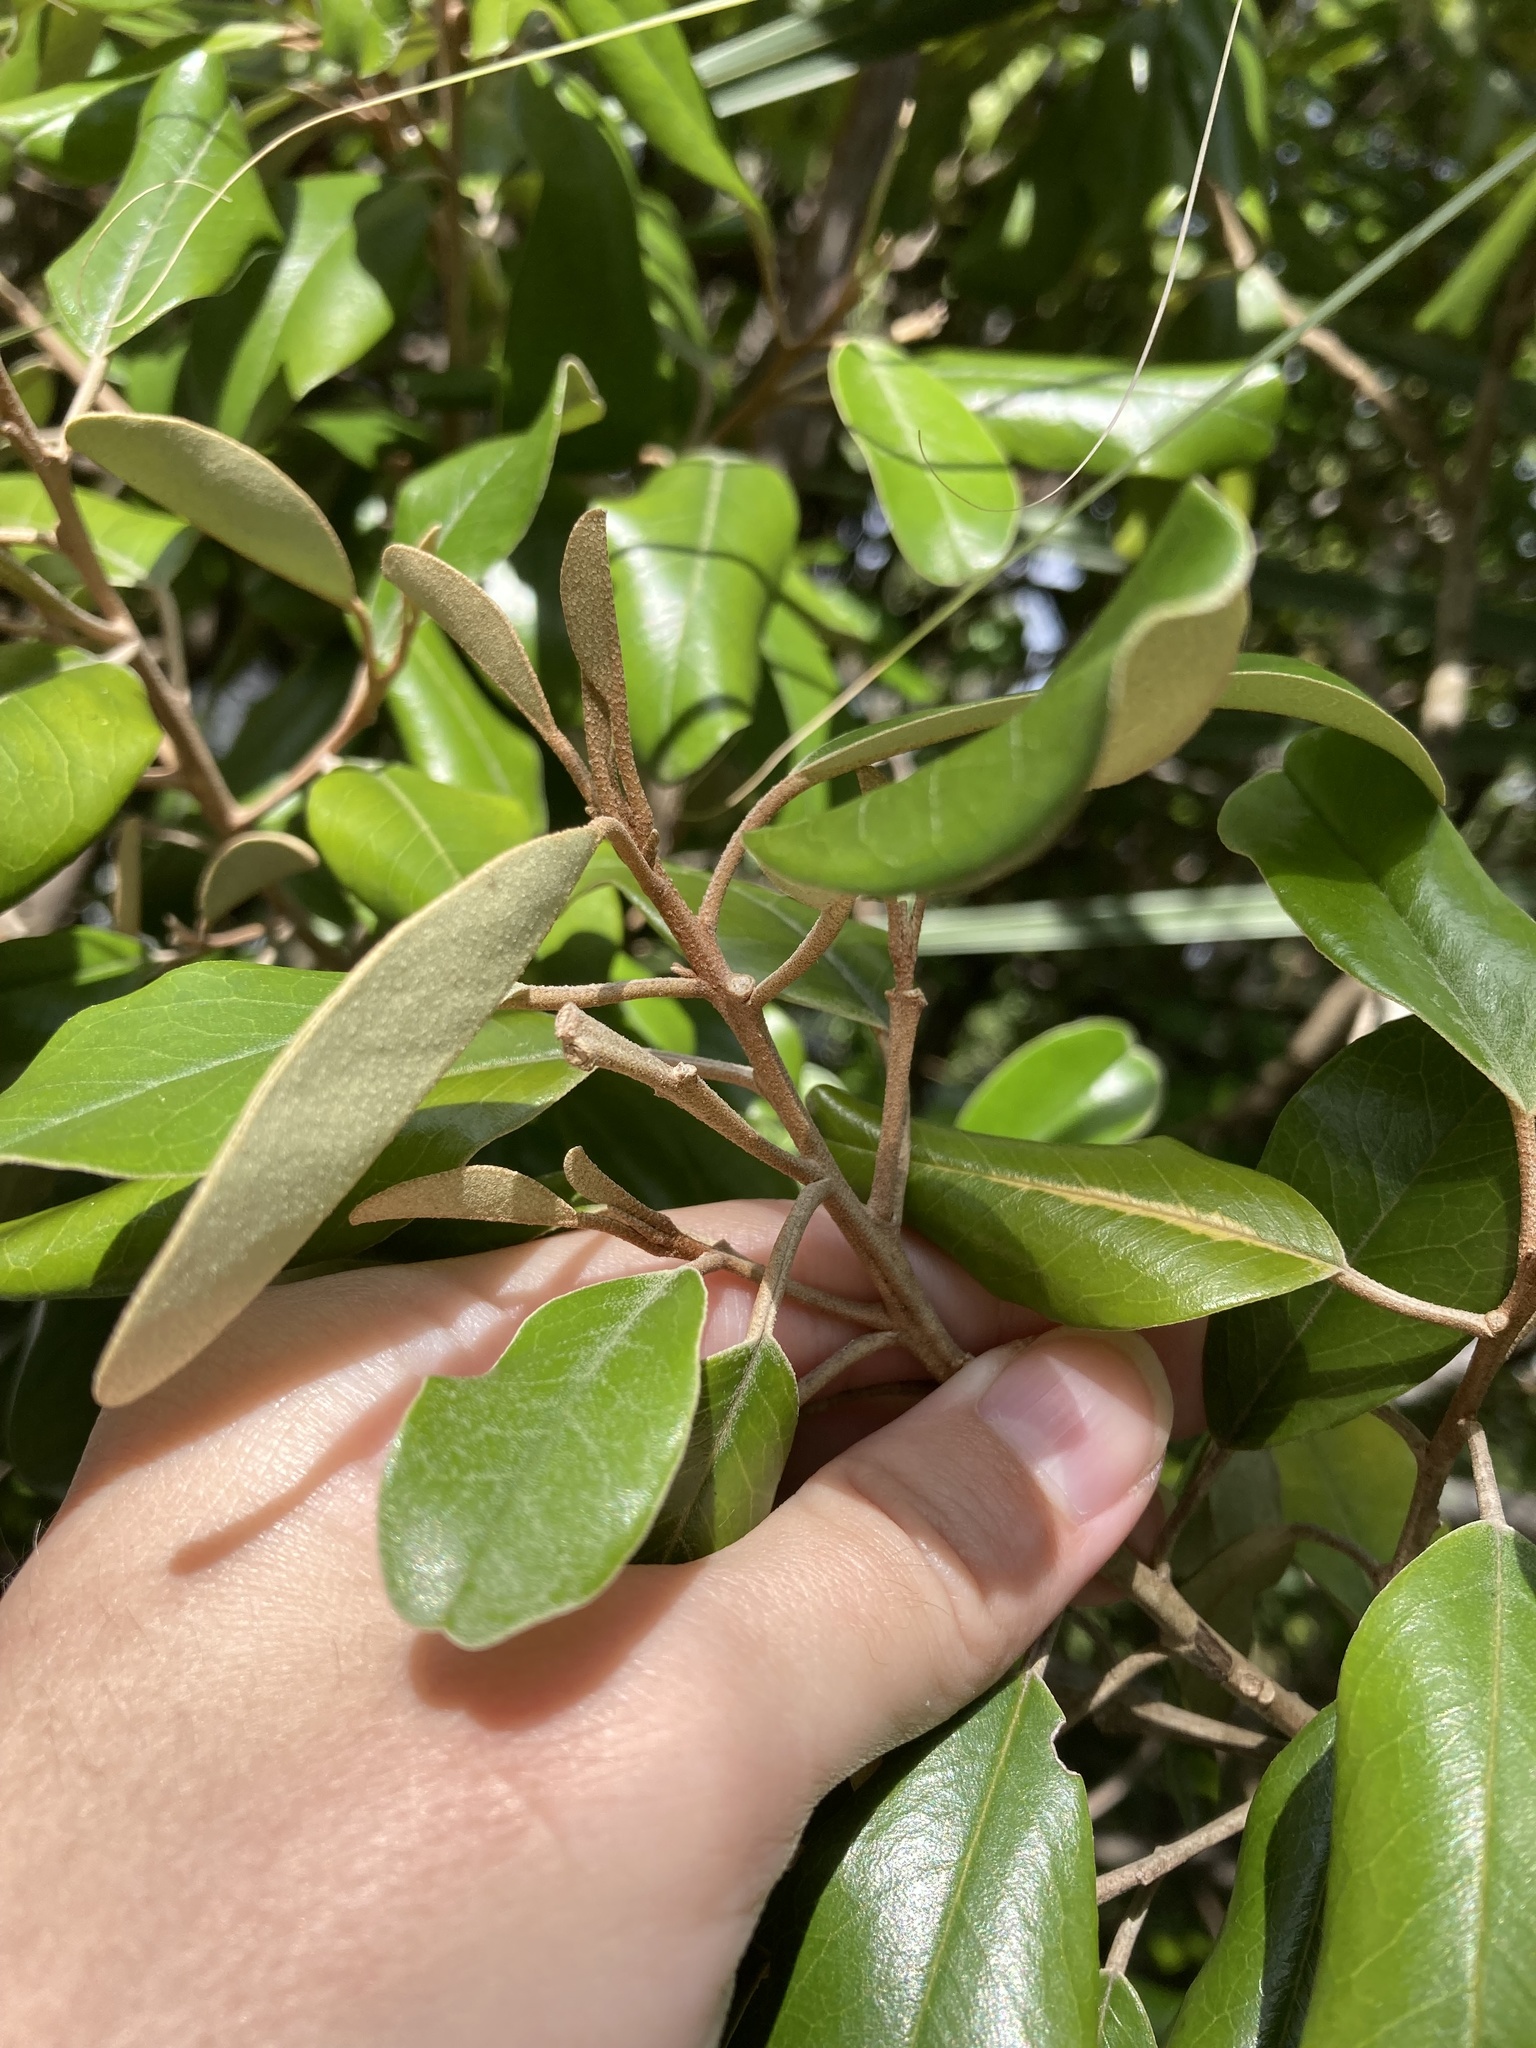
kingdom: Plantae
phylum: Tracheophyta
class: Magnoliopsida
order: Brassicales
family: Capparaceae
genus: Quadrella
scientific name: Quadrella cynophallophora
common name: Black willow
